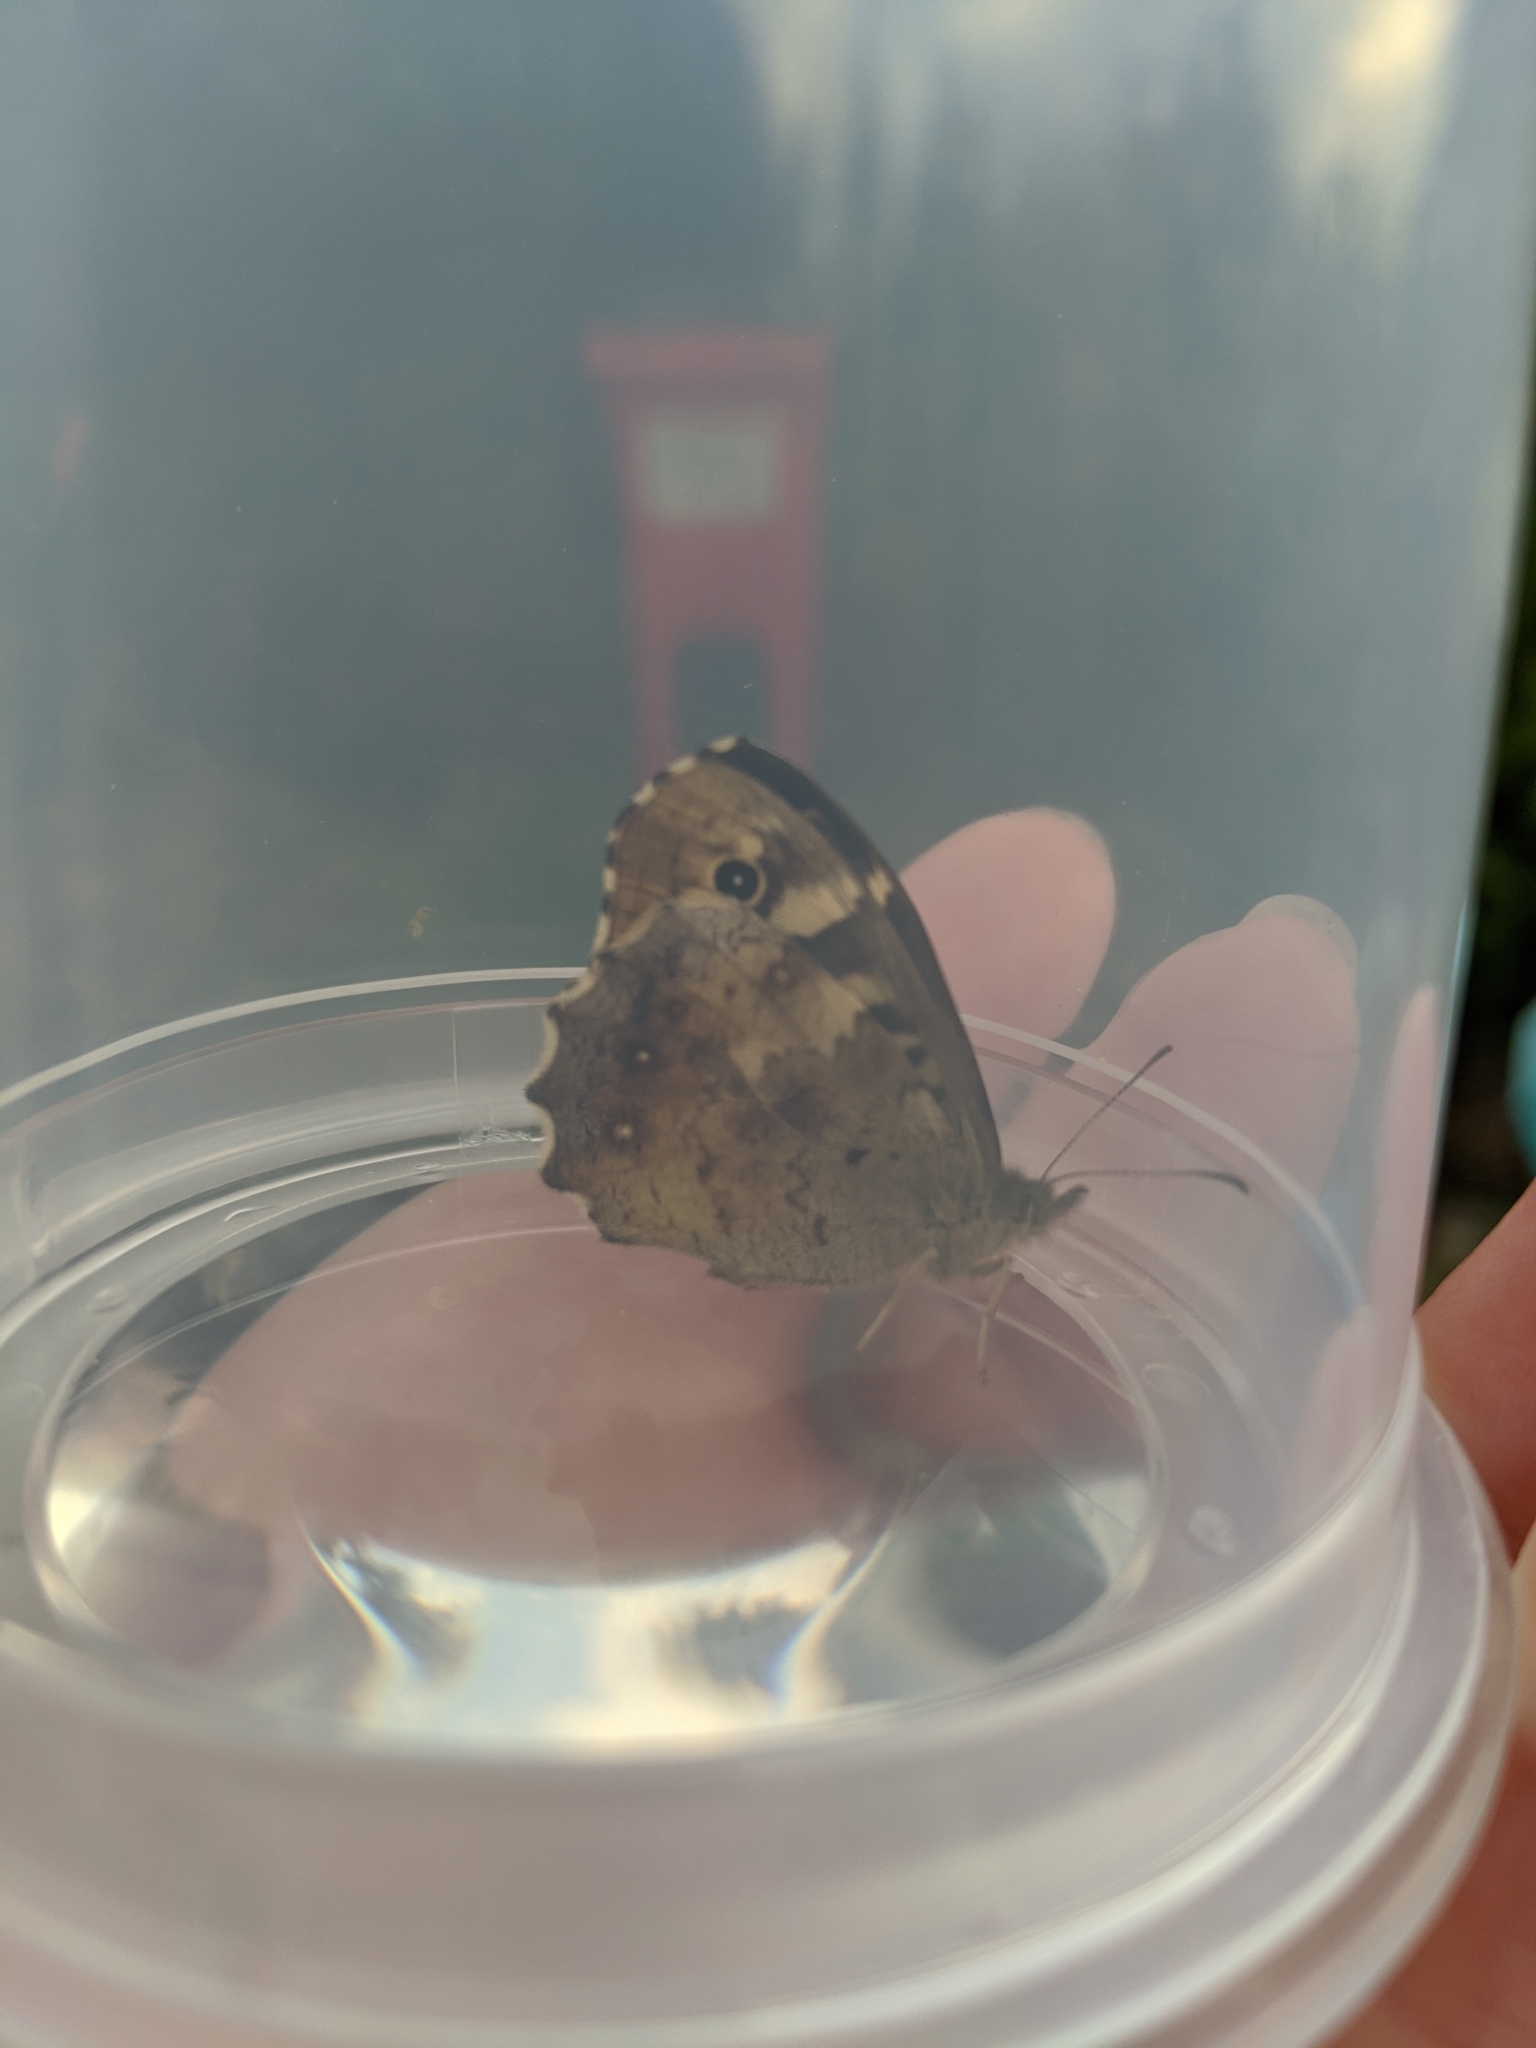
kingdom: Animalia
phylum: Arthropoda
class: Insecta
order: Lepidoptera
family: Nymphalidae
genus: Pararge
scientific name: Pararge aegeria
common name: Speckled wood
